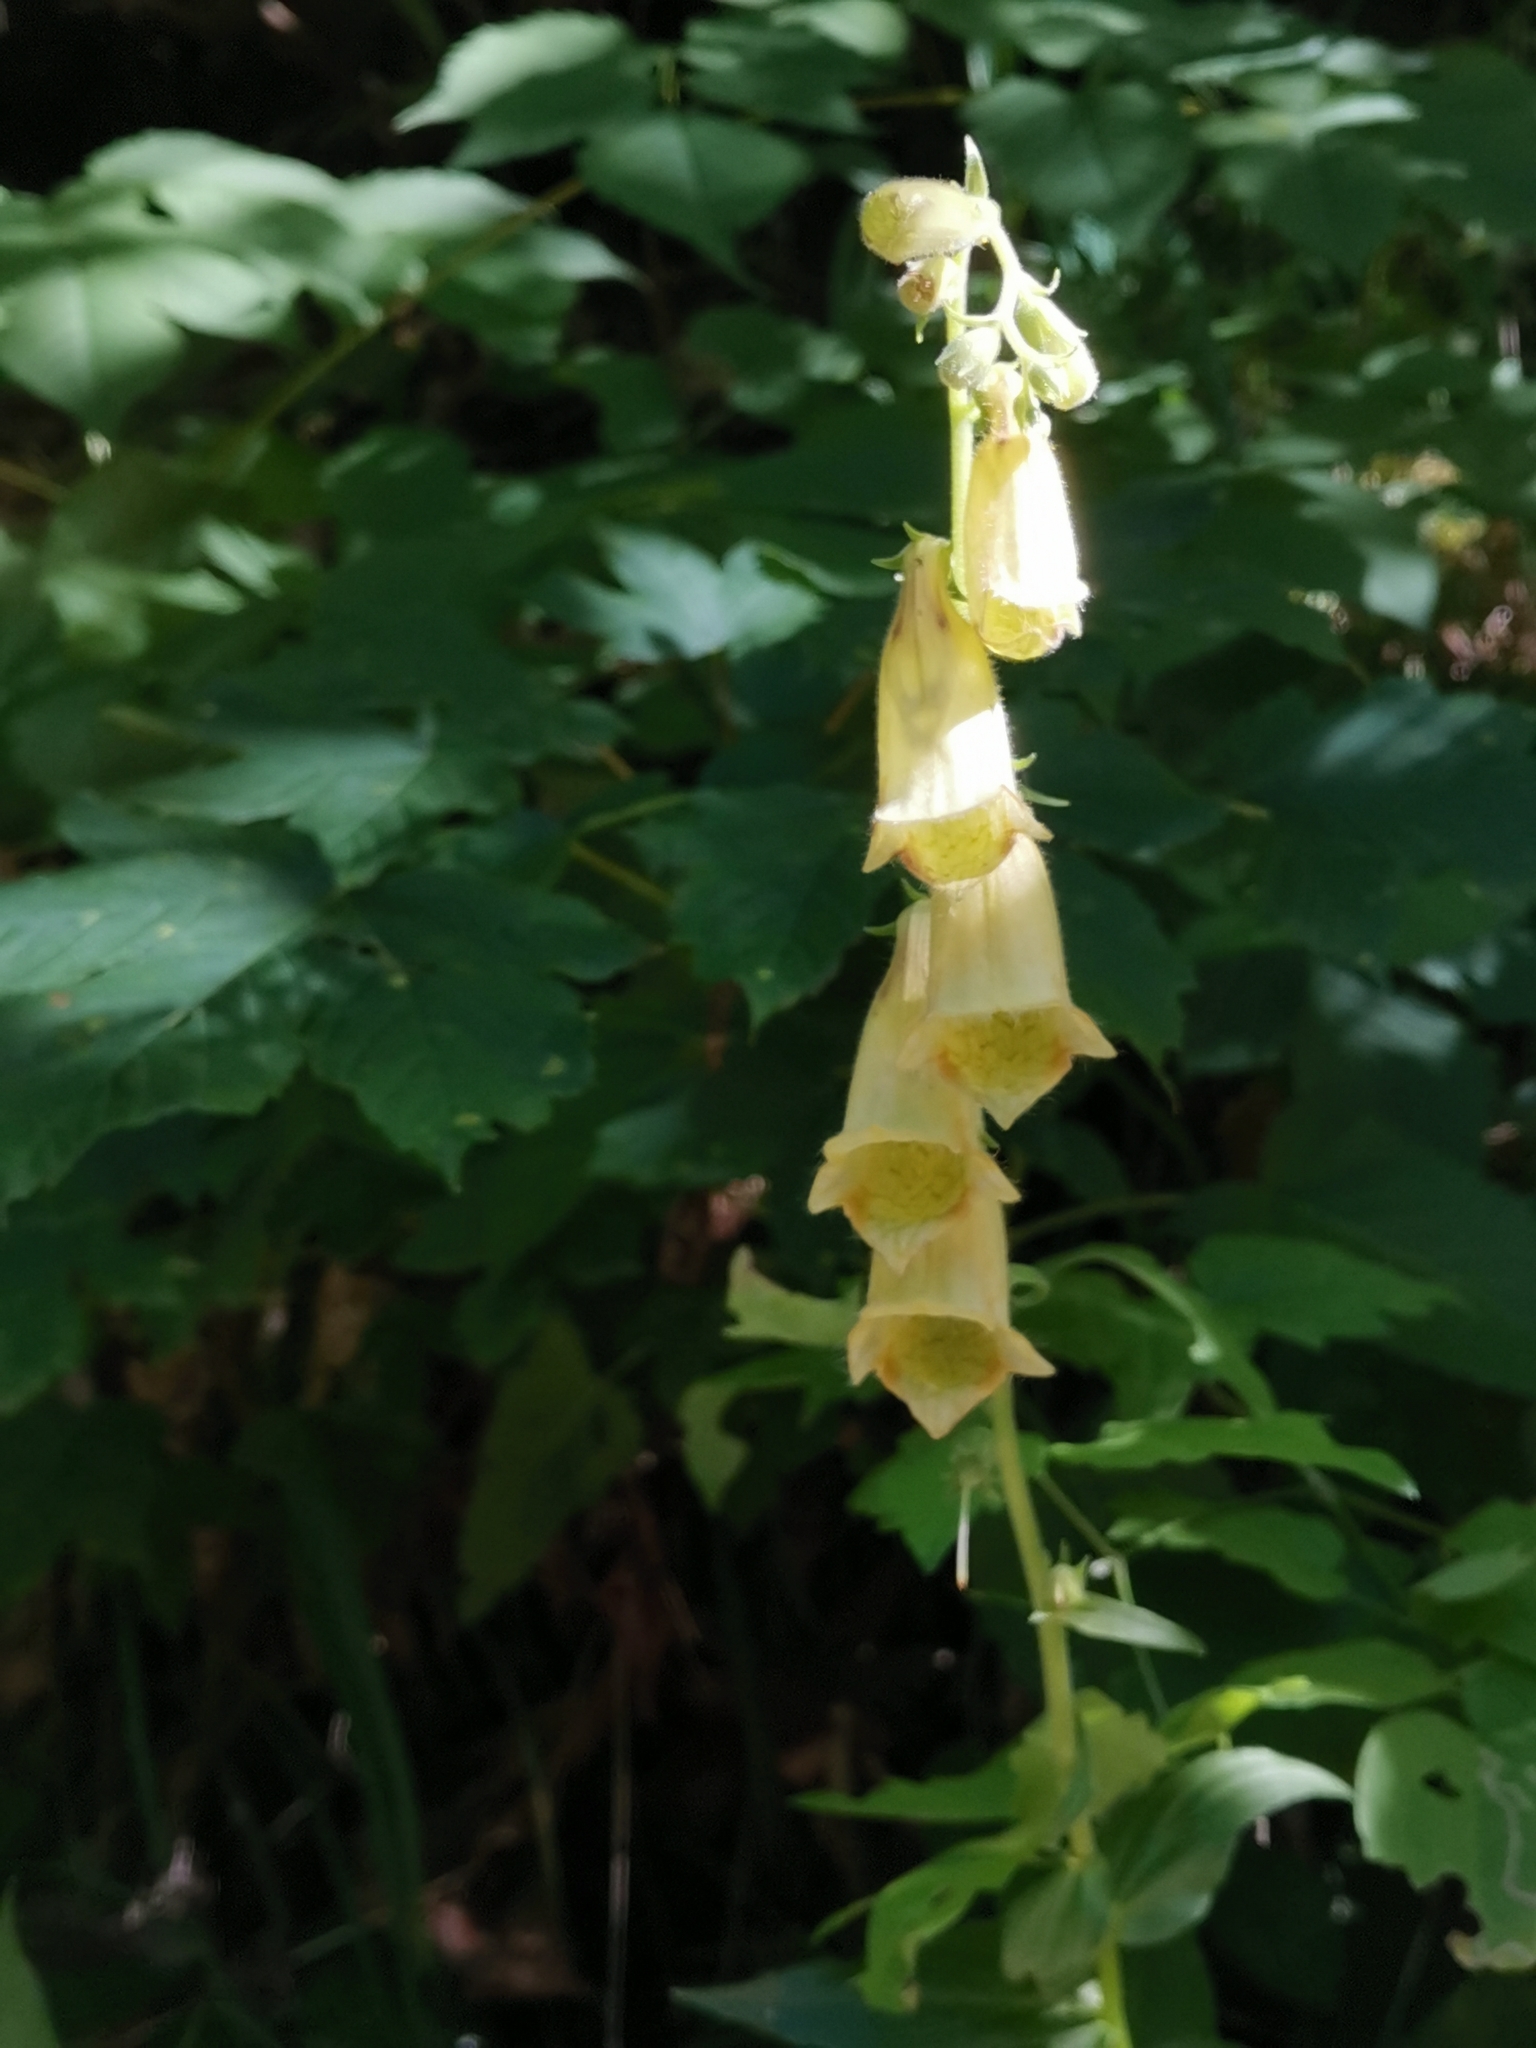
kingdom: Plantae
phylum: Tracheophyta
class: Magnoliopsida
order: Lamiales
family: Plantaginaceae
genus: Digitalis
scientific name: Digitalis grandiflora
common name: Yellow foxglove
